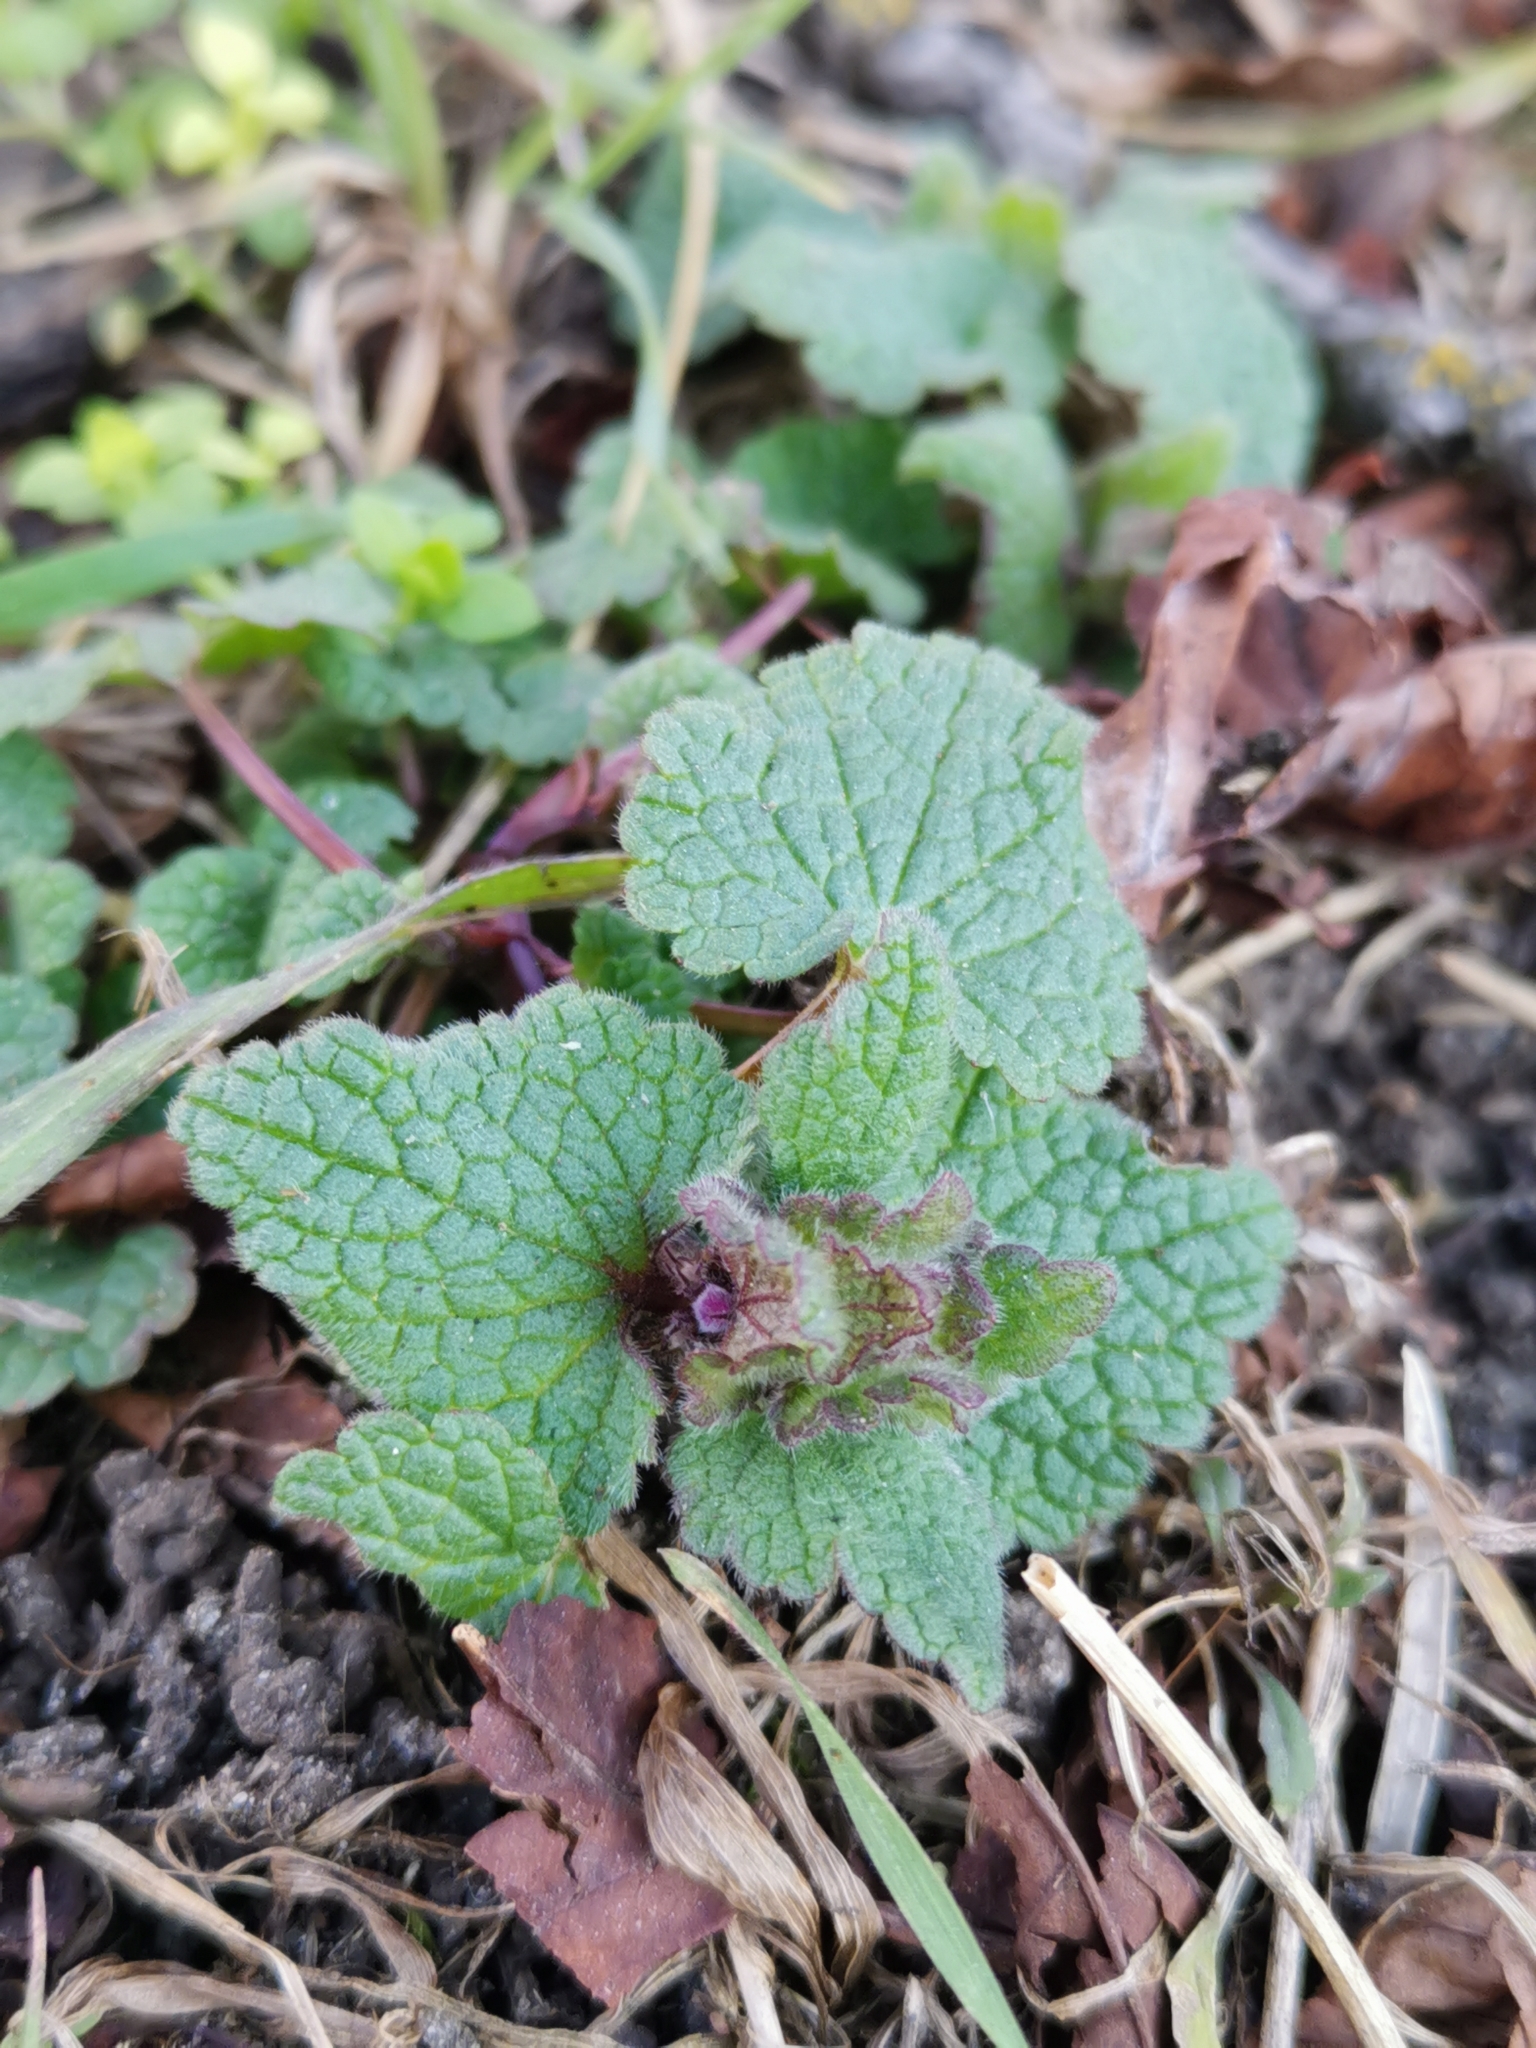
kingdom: Plantae
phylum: Tracheophyta
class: Magnoliopsida
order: Lamiales
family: Lamiaceae
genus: Lamium
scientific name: Lamium purpureum
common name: Red dead-nettle
